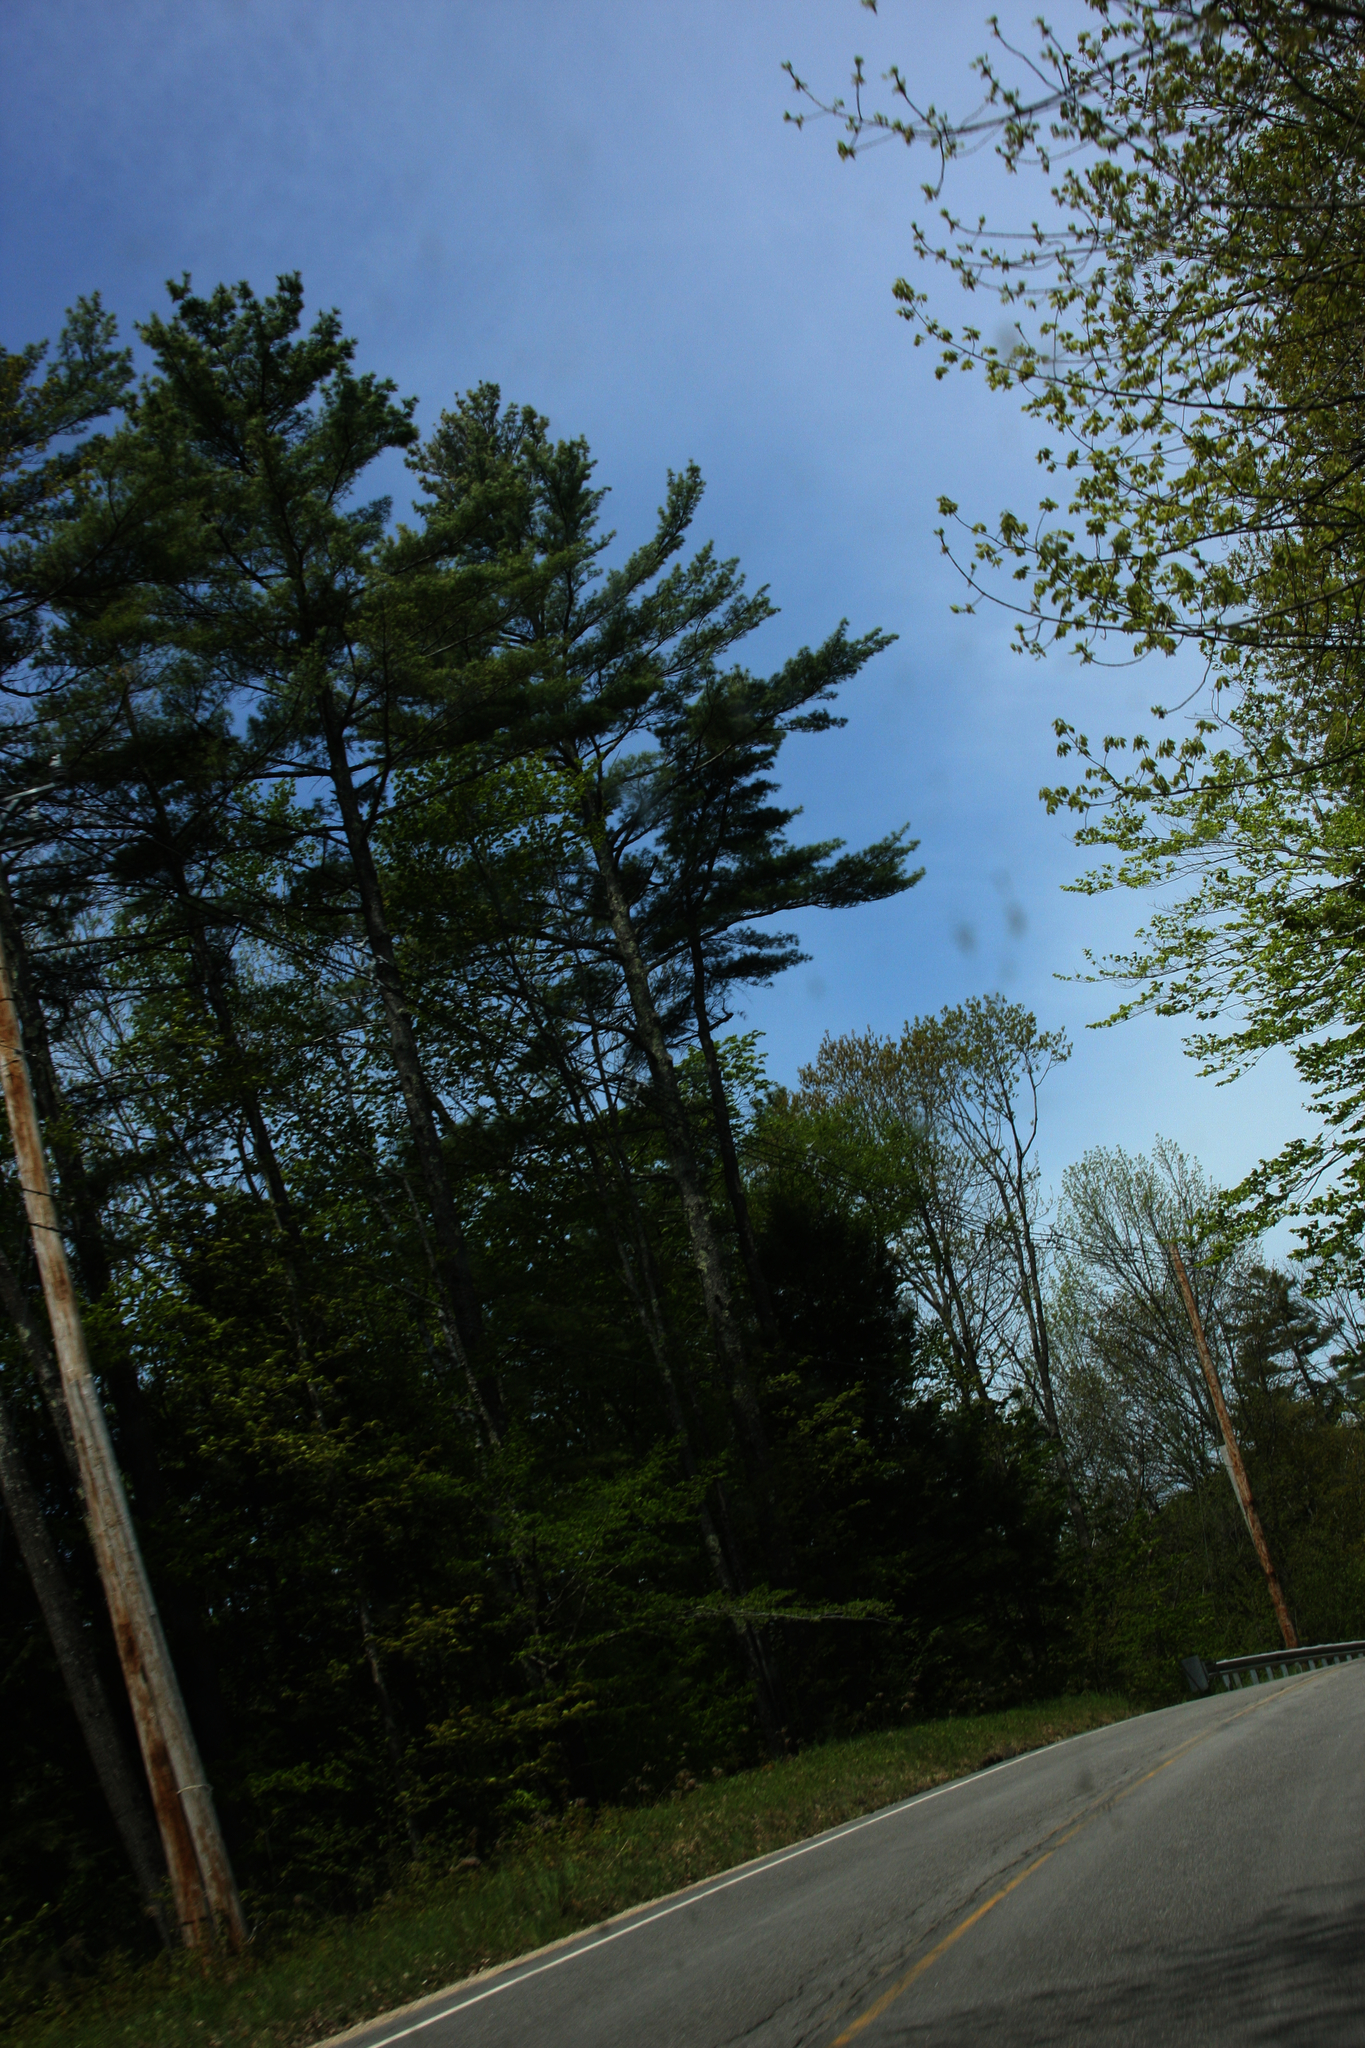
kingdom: Plantae
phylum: Tracheophyta
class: Pinopsida
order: Pinales
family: Pinaceae
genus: Pinus
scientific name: Pinus strobus
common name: Weymouth pine
